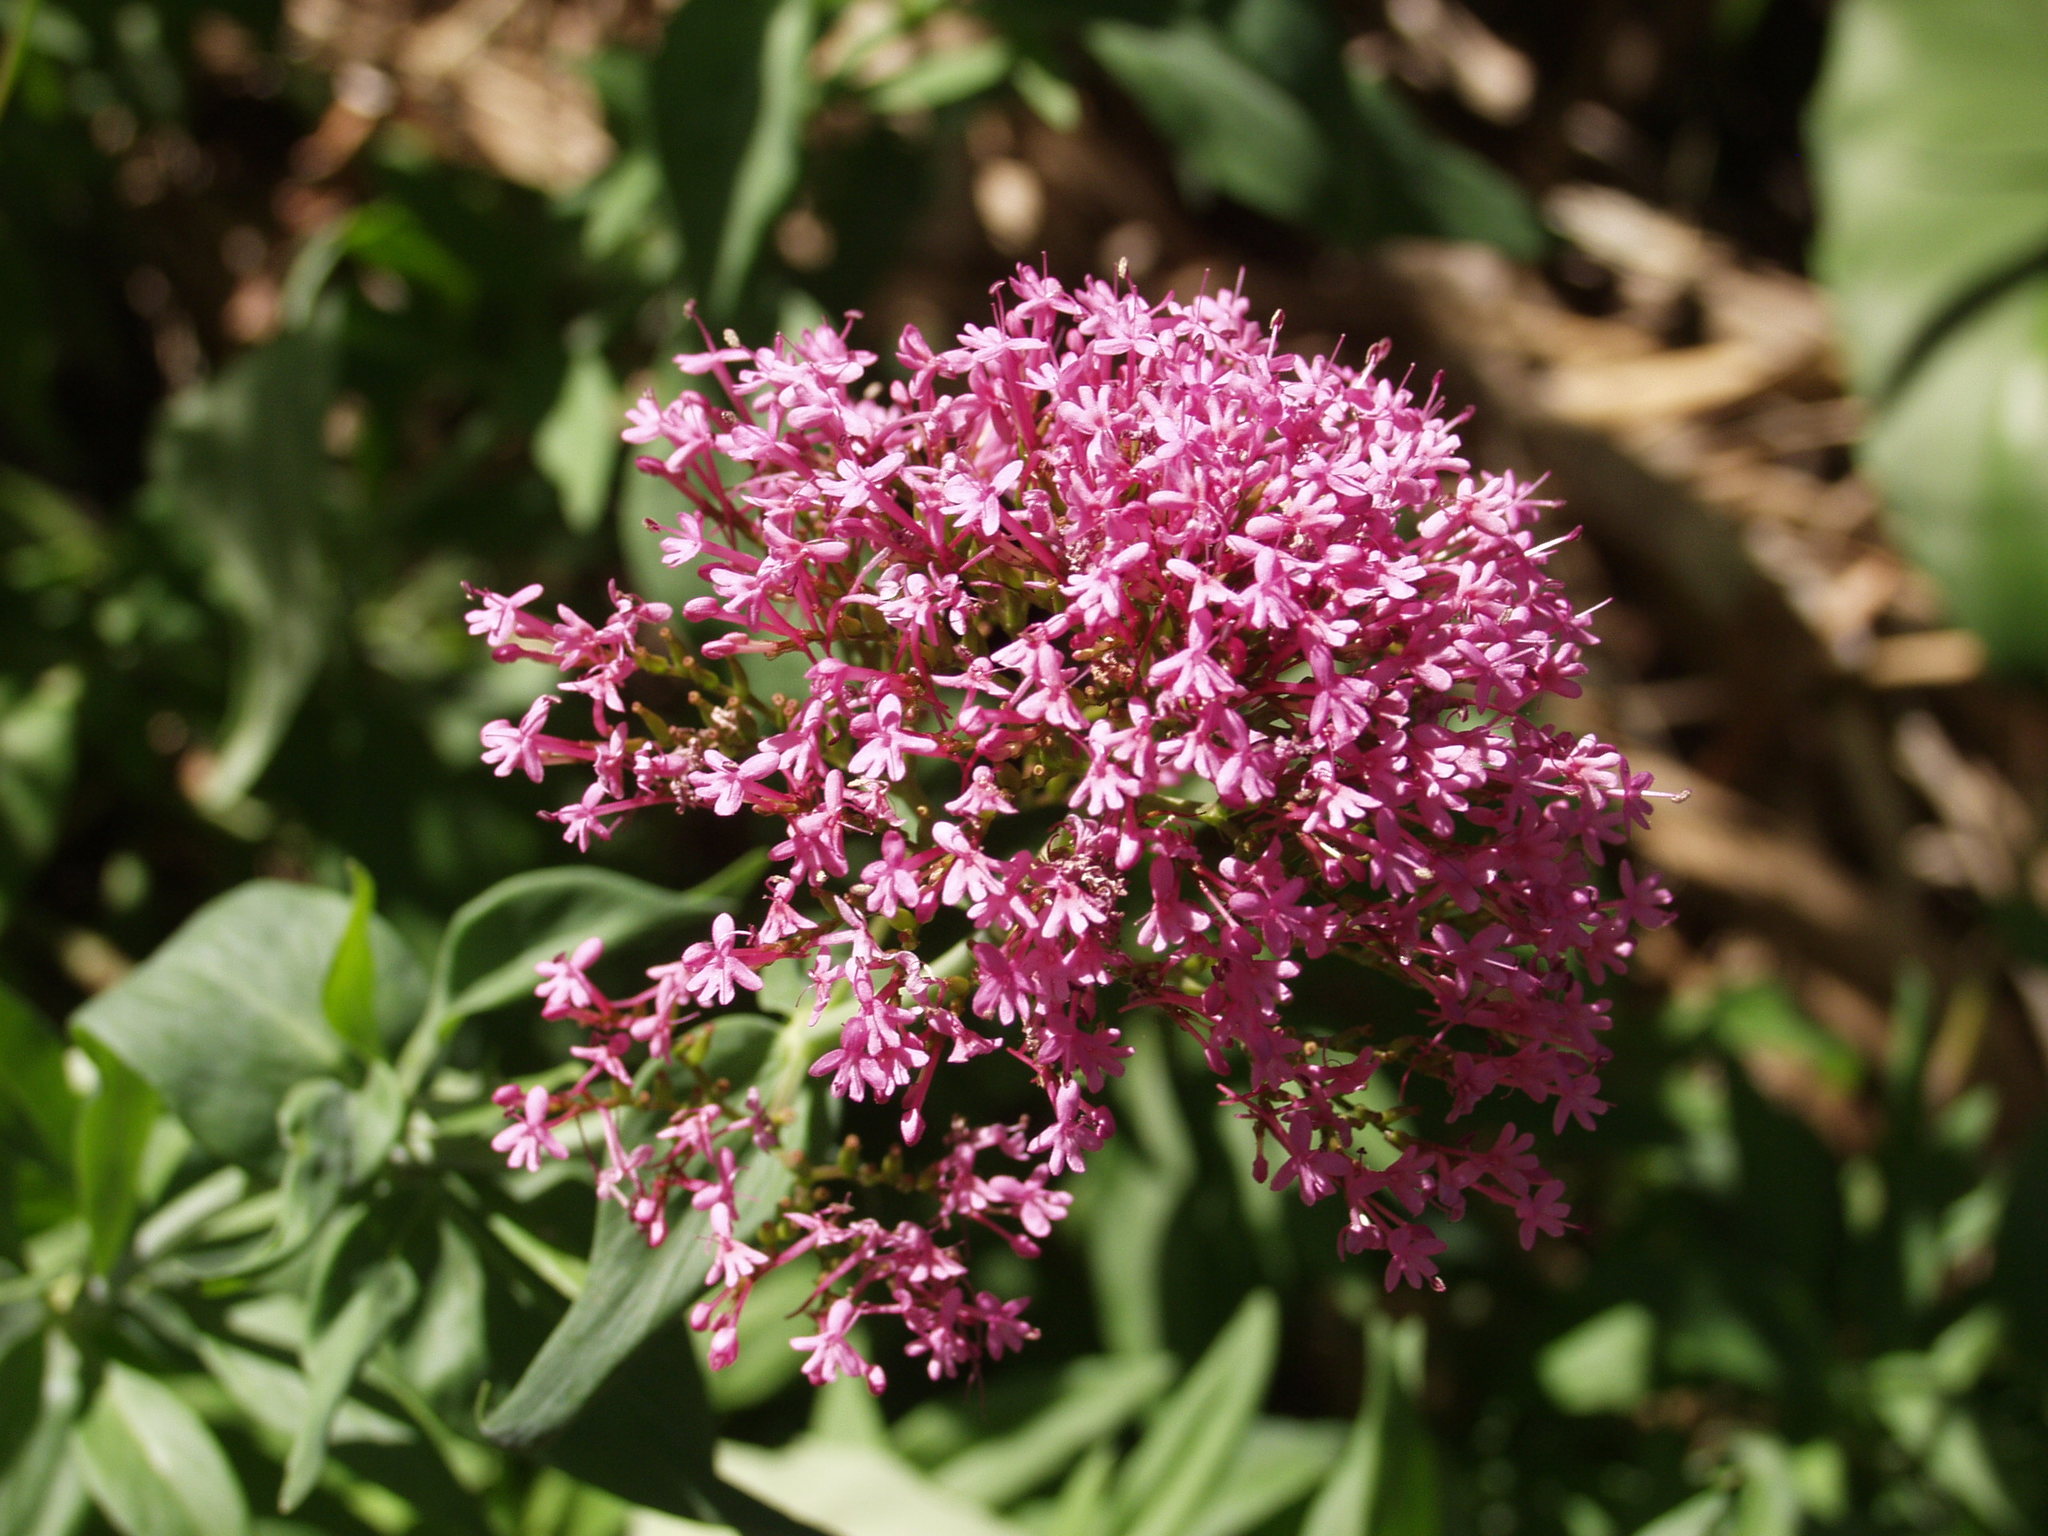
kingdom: Plantae
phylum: Tracheophyta
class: Magnoliopsida
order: Dipsacales
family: Caprifoliaceae
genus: Centranthus
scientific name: Centranthus ruber
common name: Red valerian
